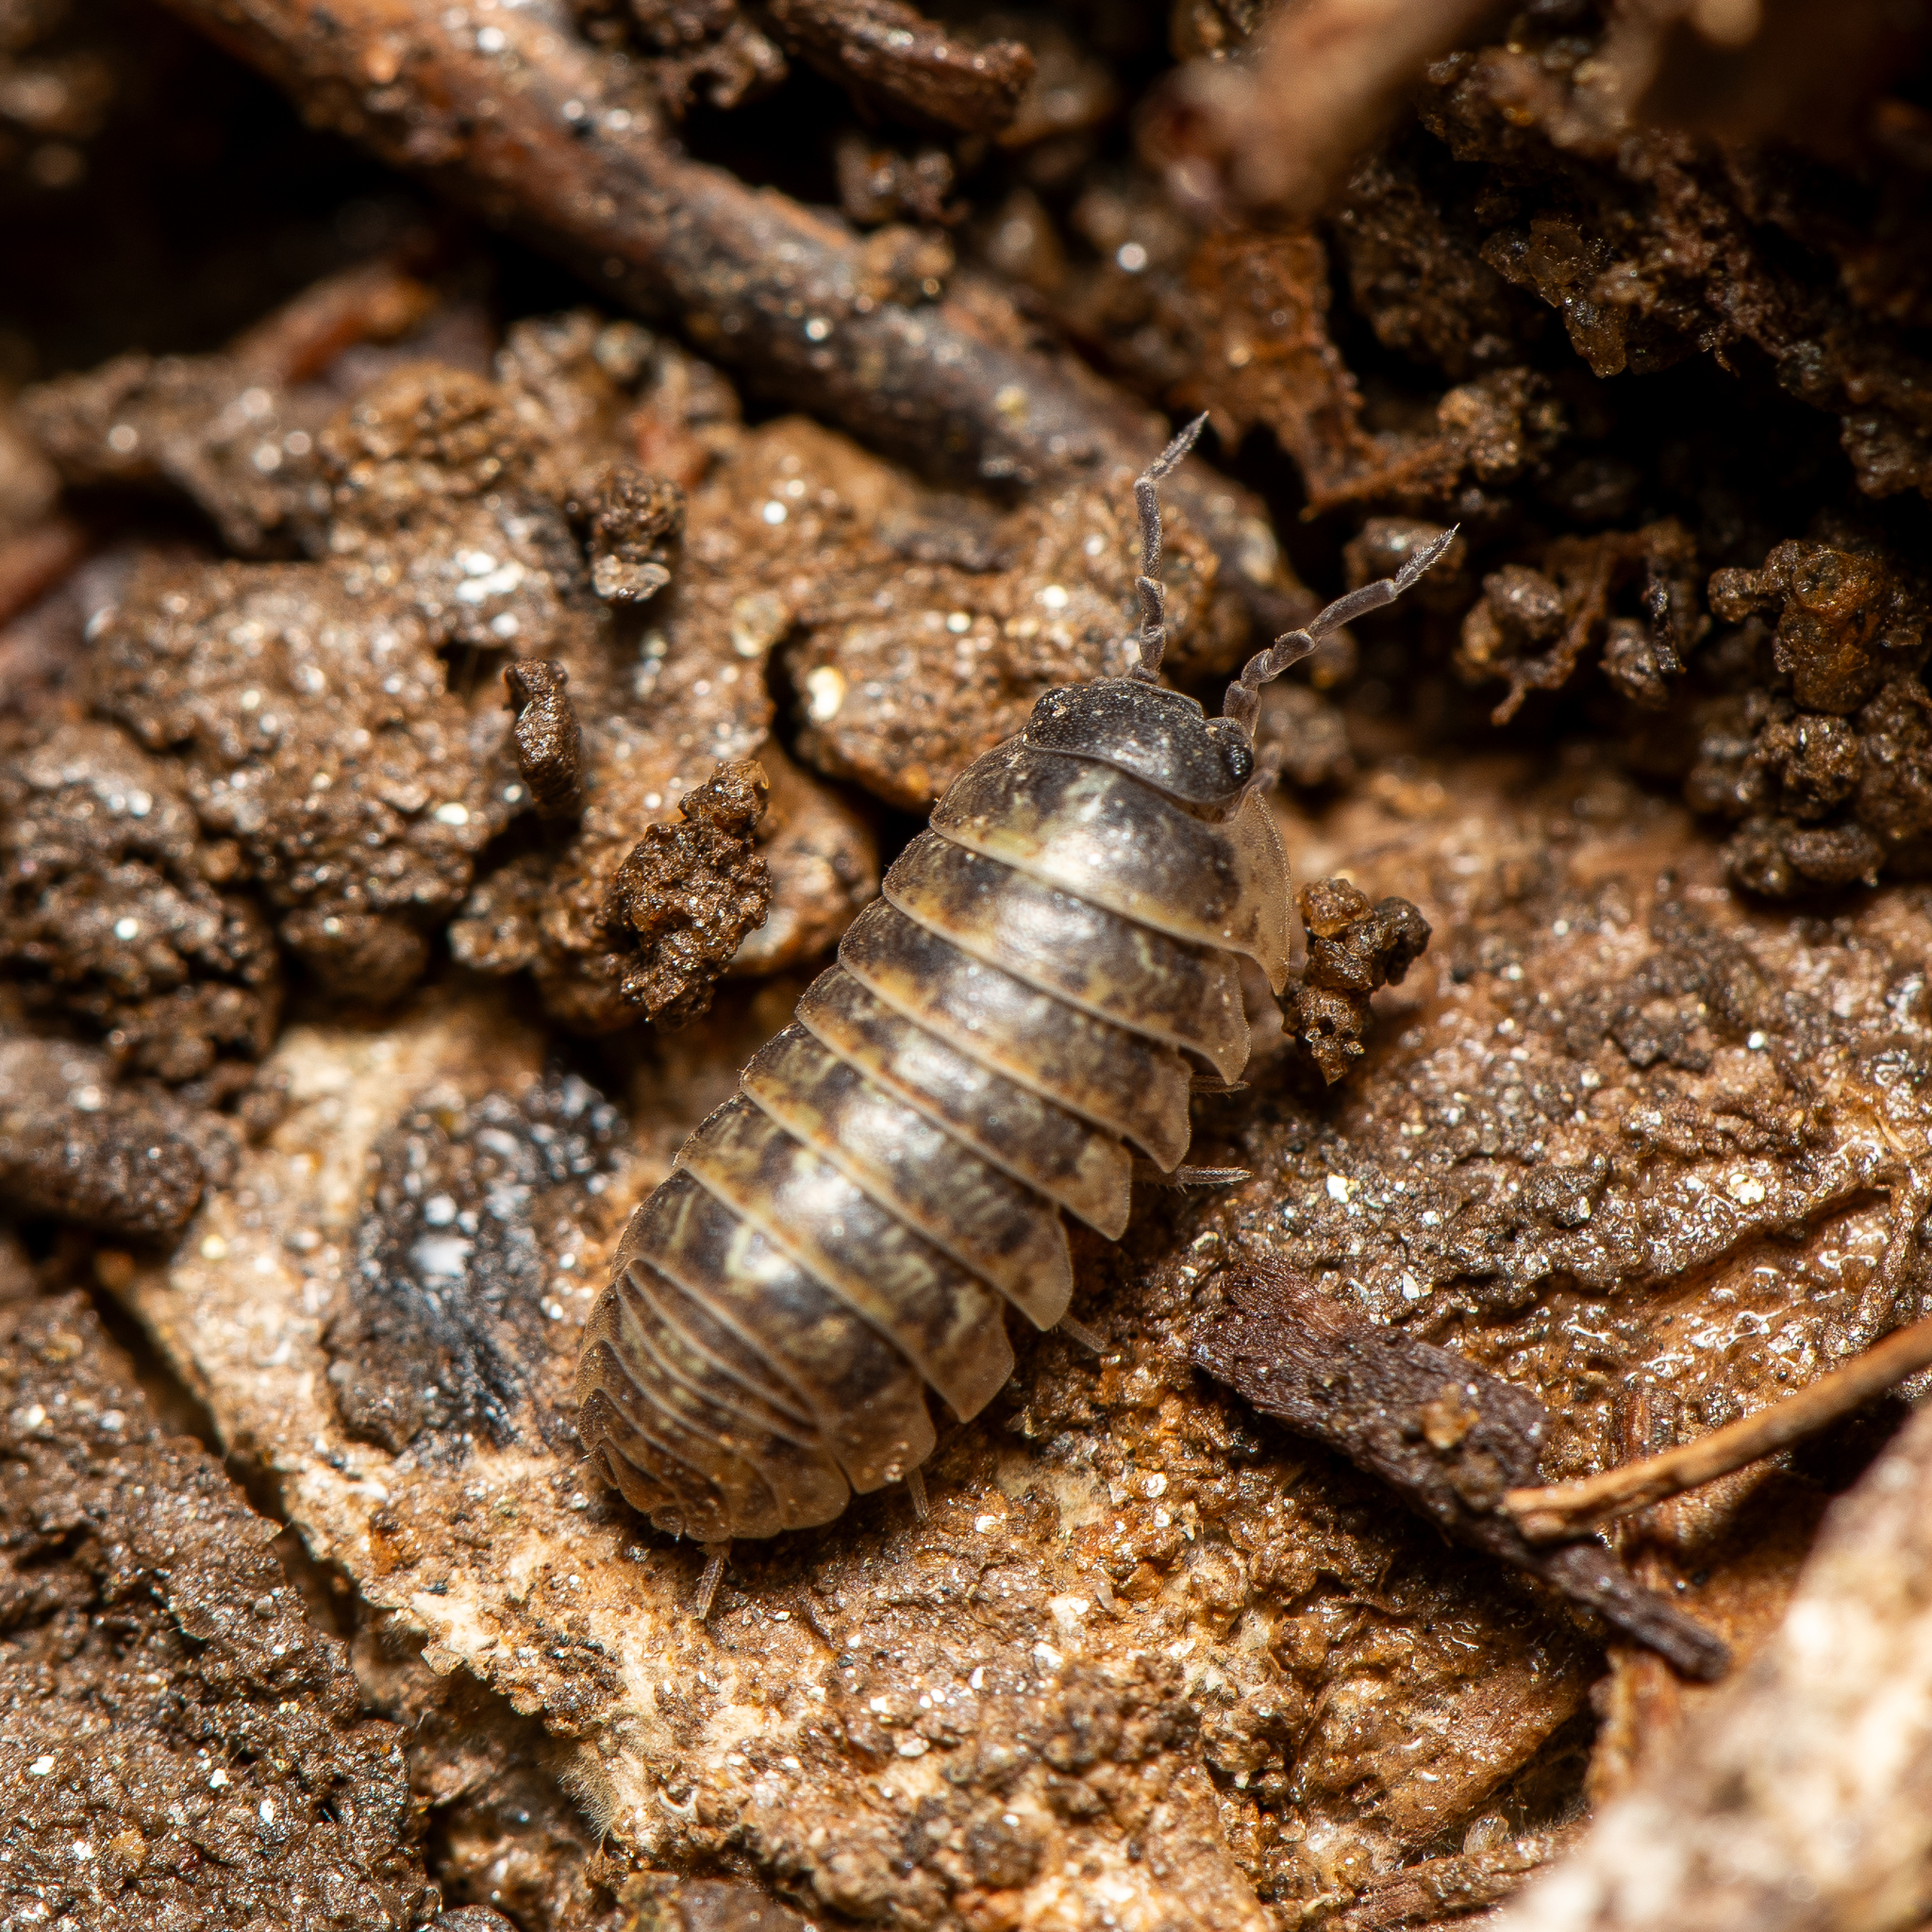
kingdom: Animalia
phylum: Arthropoda
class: Malacostraca
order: Isopoda
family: Armadillidiidae
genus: Armadillidium
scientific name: Armadillidium vulgare
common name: Common pill woodlouse
